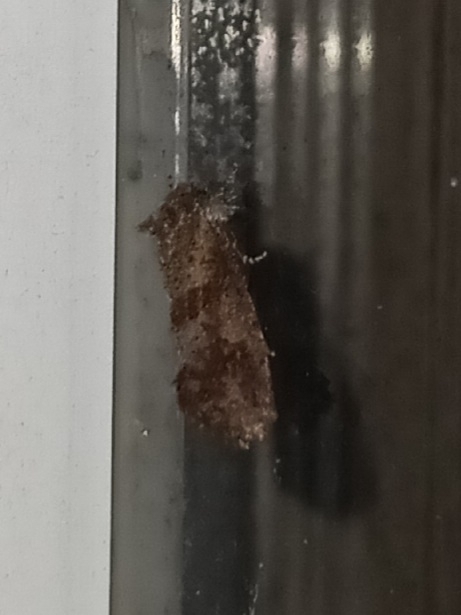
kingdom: Animalia
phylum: Arthropoda
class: Insecta
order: Lepidoptera
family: Tineidae
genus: Acrolophus
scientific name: Acrolophus panamae
